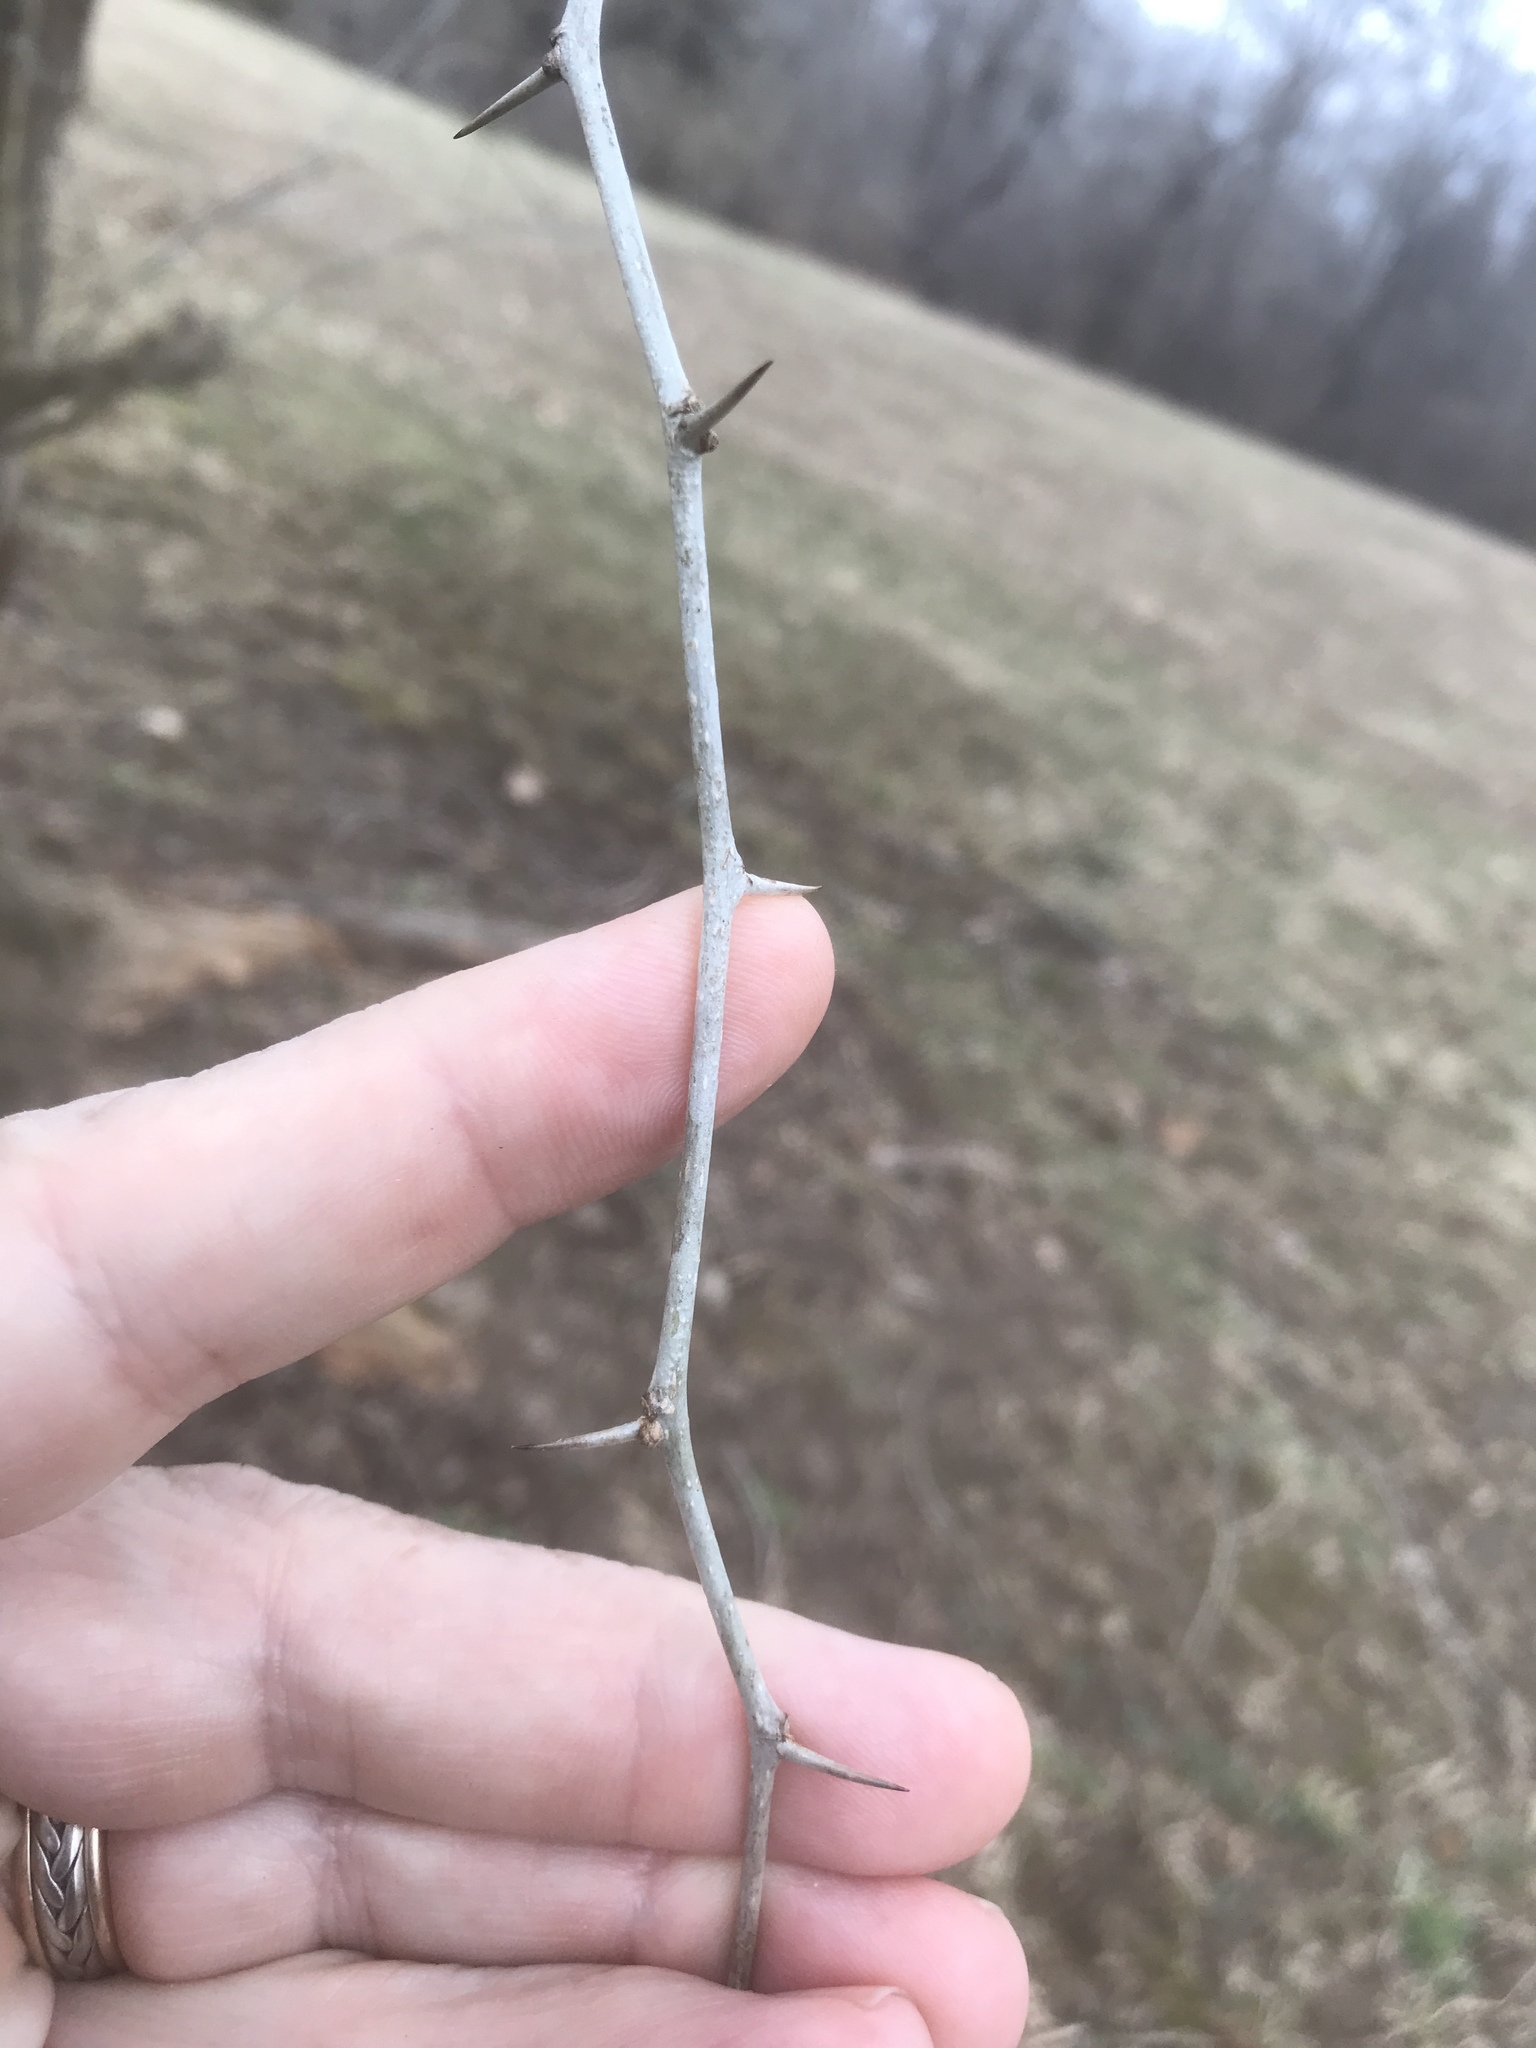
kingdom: Plantae
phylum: Tracheophyta
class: Magnoliopsida
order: Rosales
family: Moraceae
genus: Maclura
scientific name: Maclura pomifera
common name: Osage-orange
